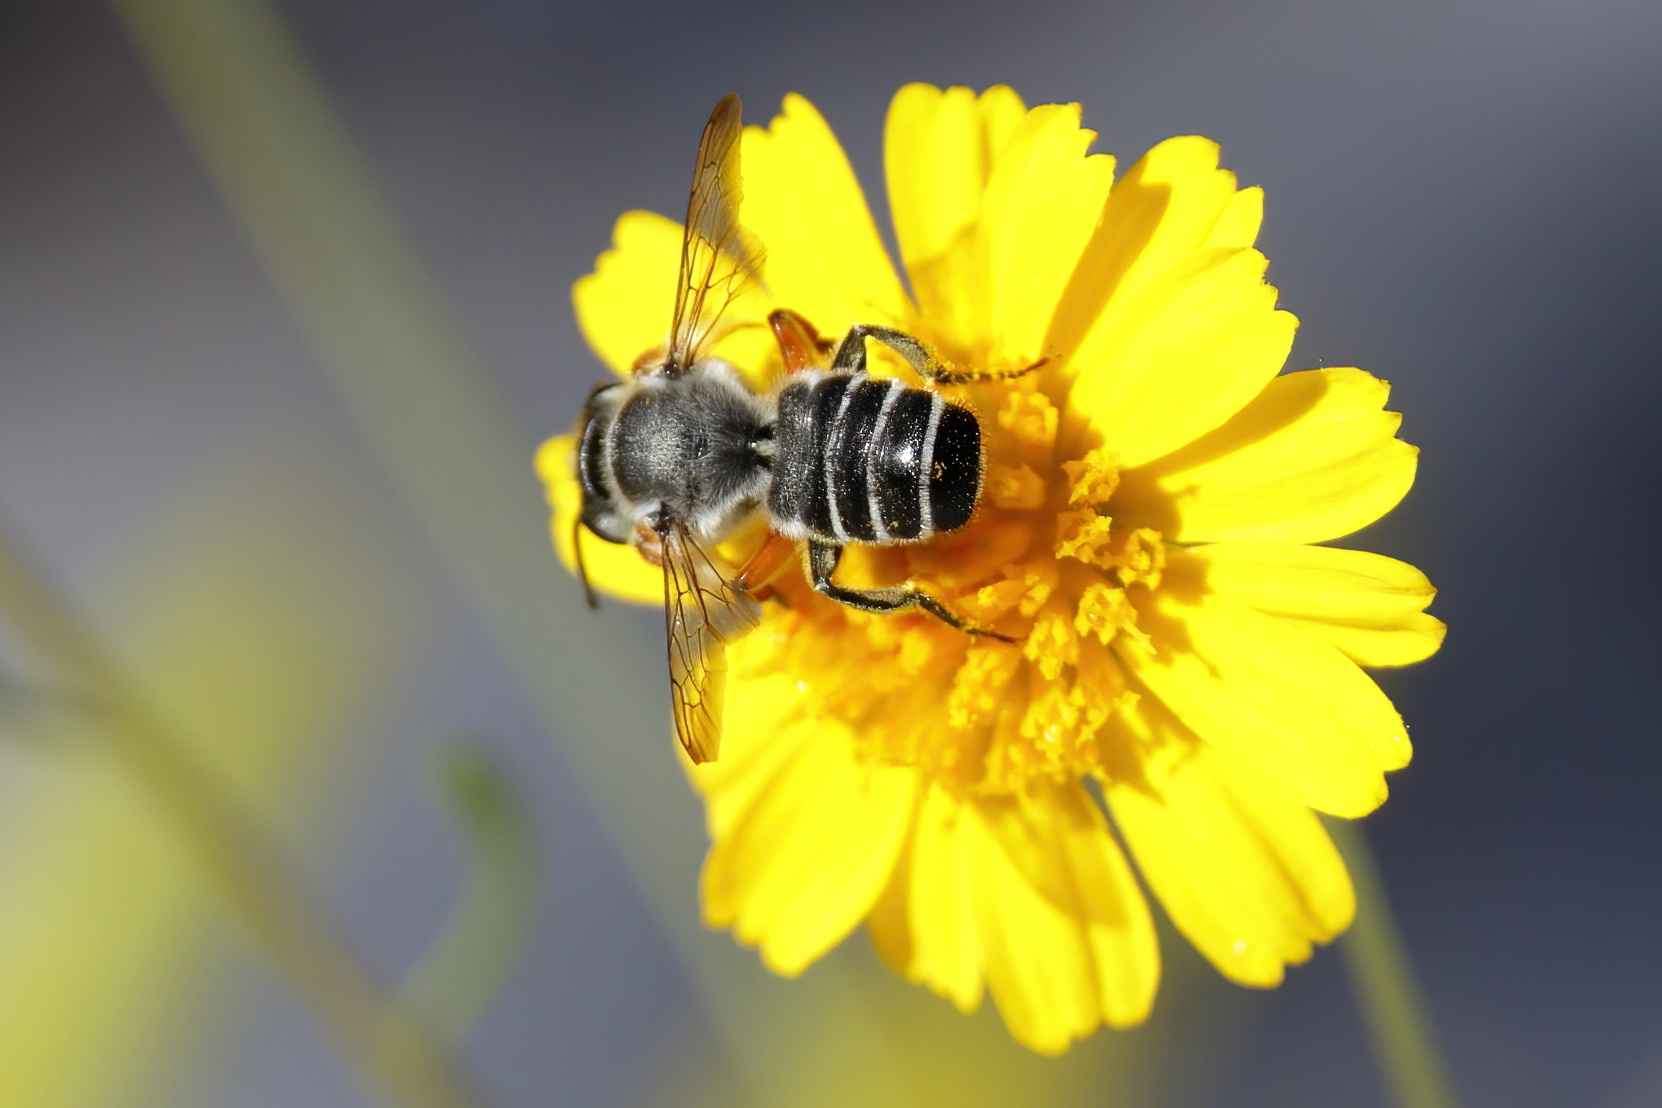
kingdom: Animalia
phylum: Arthropoda
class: Insecta
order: Hymenoptera
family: Megachilidae
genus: Megachile
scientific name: Megachile policaris
